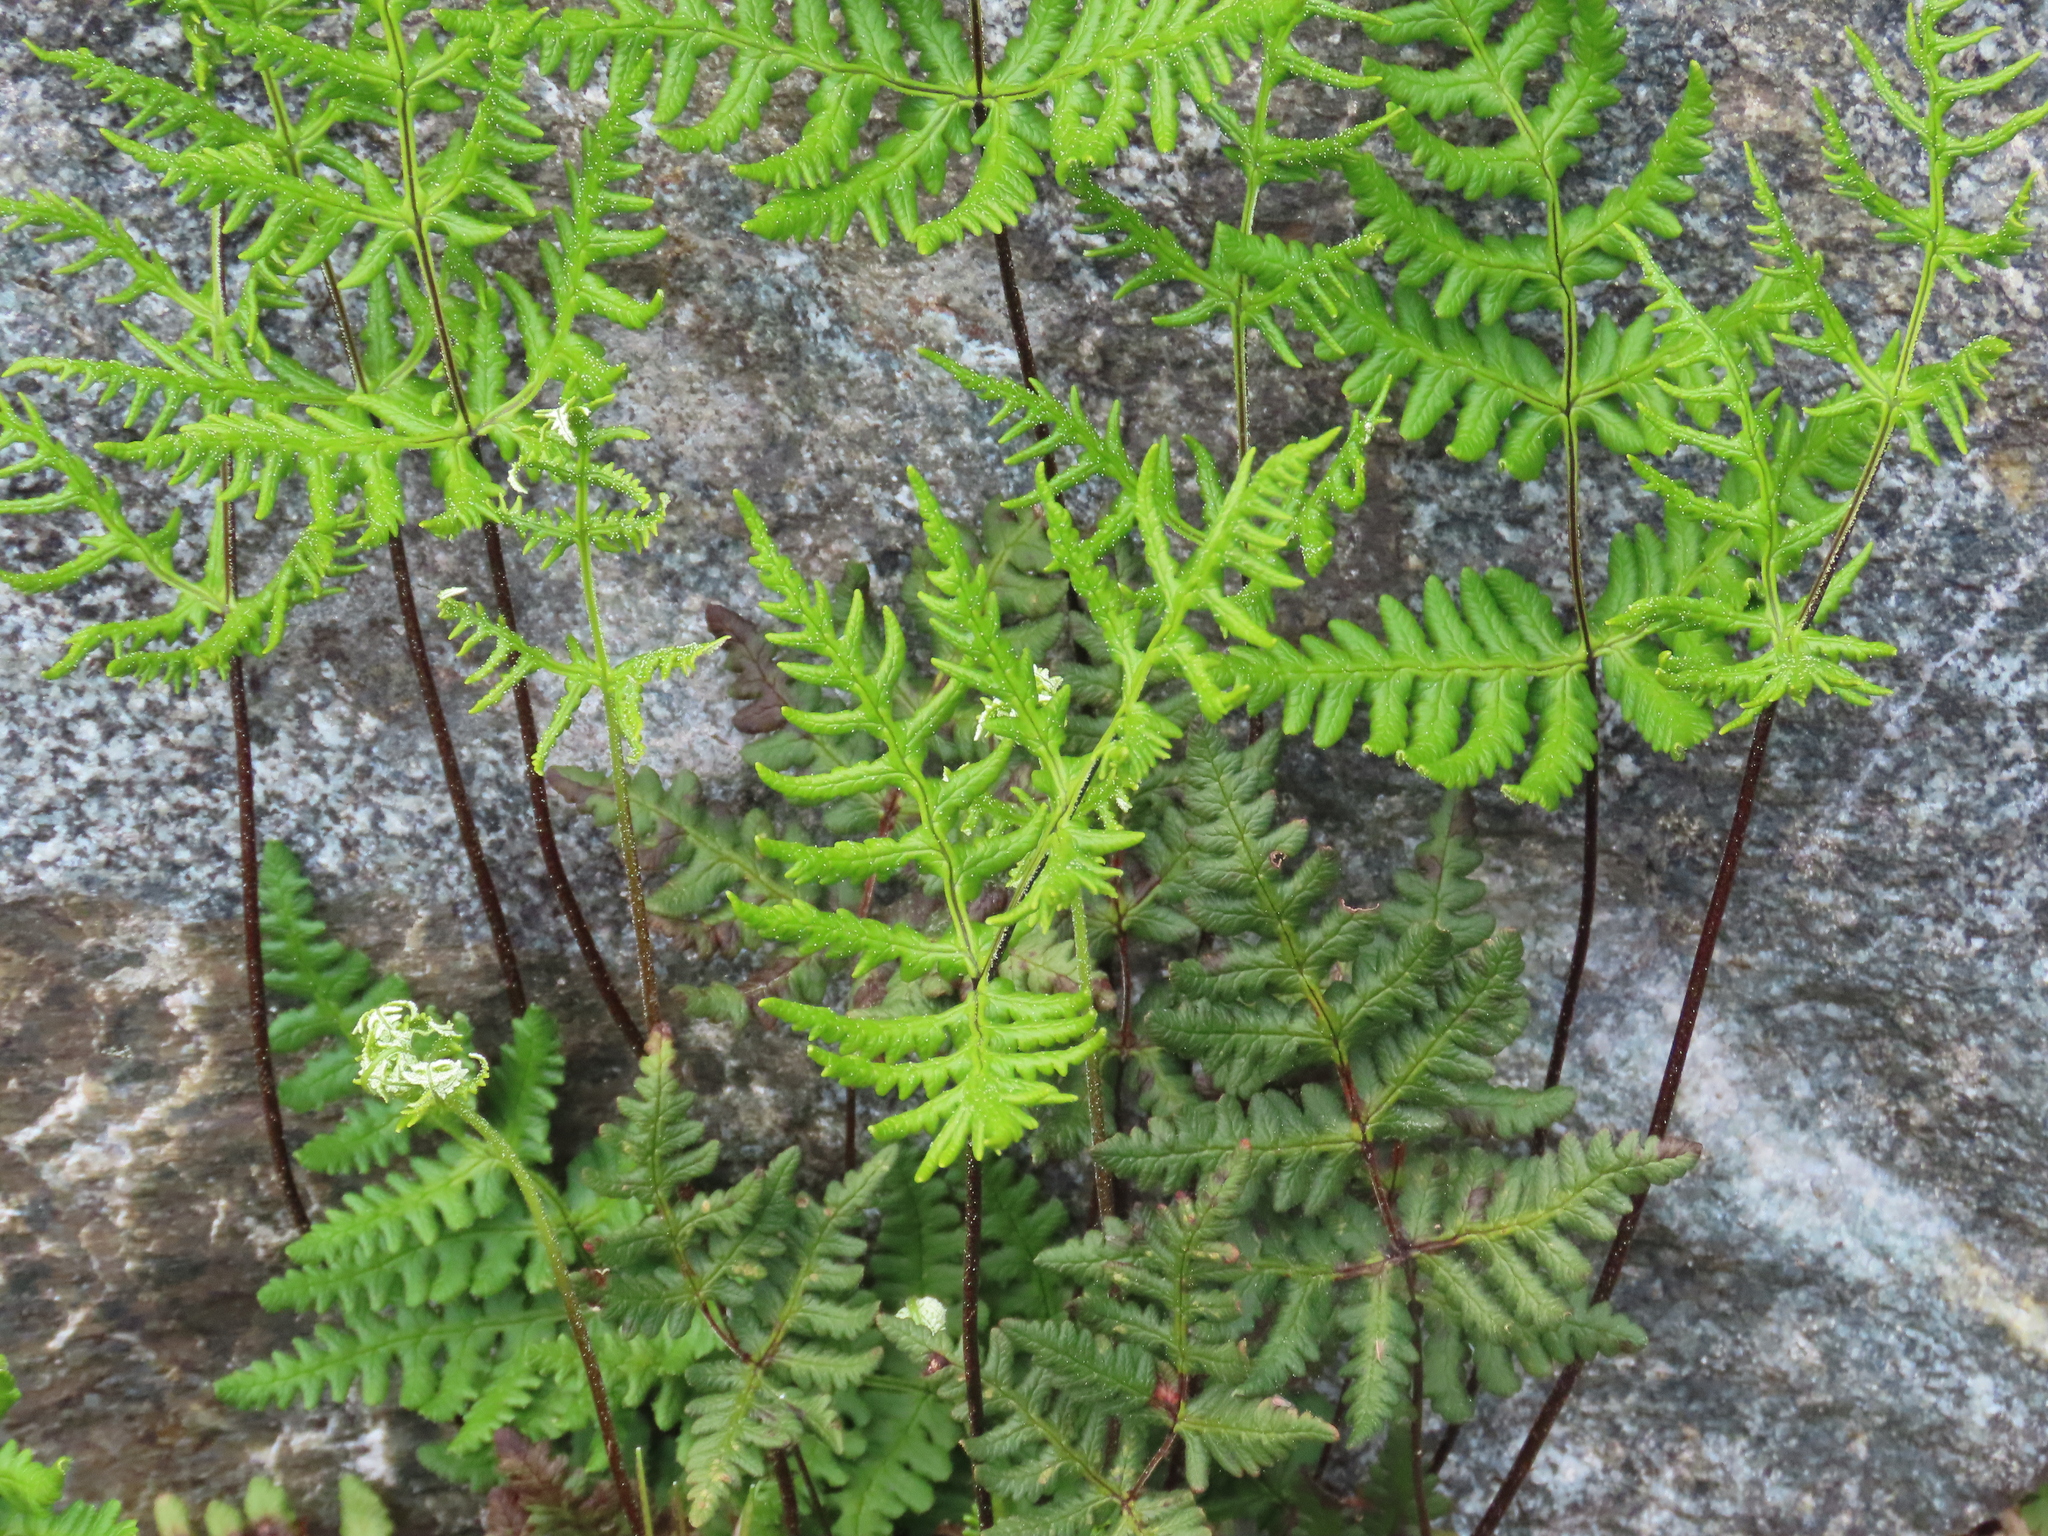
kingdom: Plantae
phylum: Tracheophyta
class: Polypodiopsida
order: Polypodiales
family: Pteridaceae
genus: Pentagramma
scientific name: Pentagramma triangularis
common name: Gold fern
